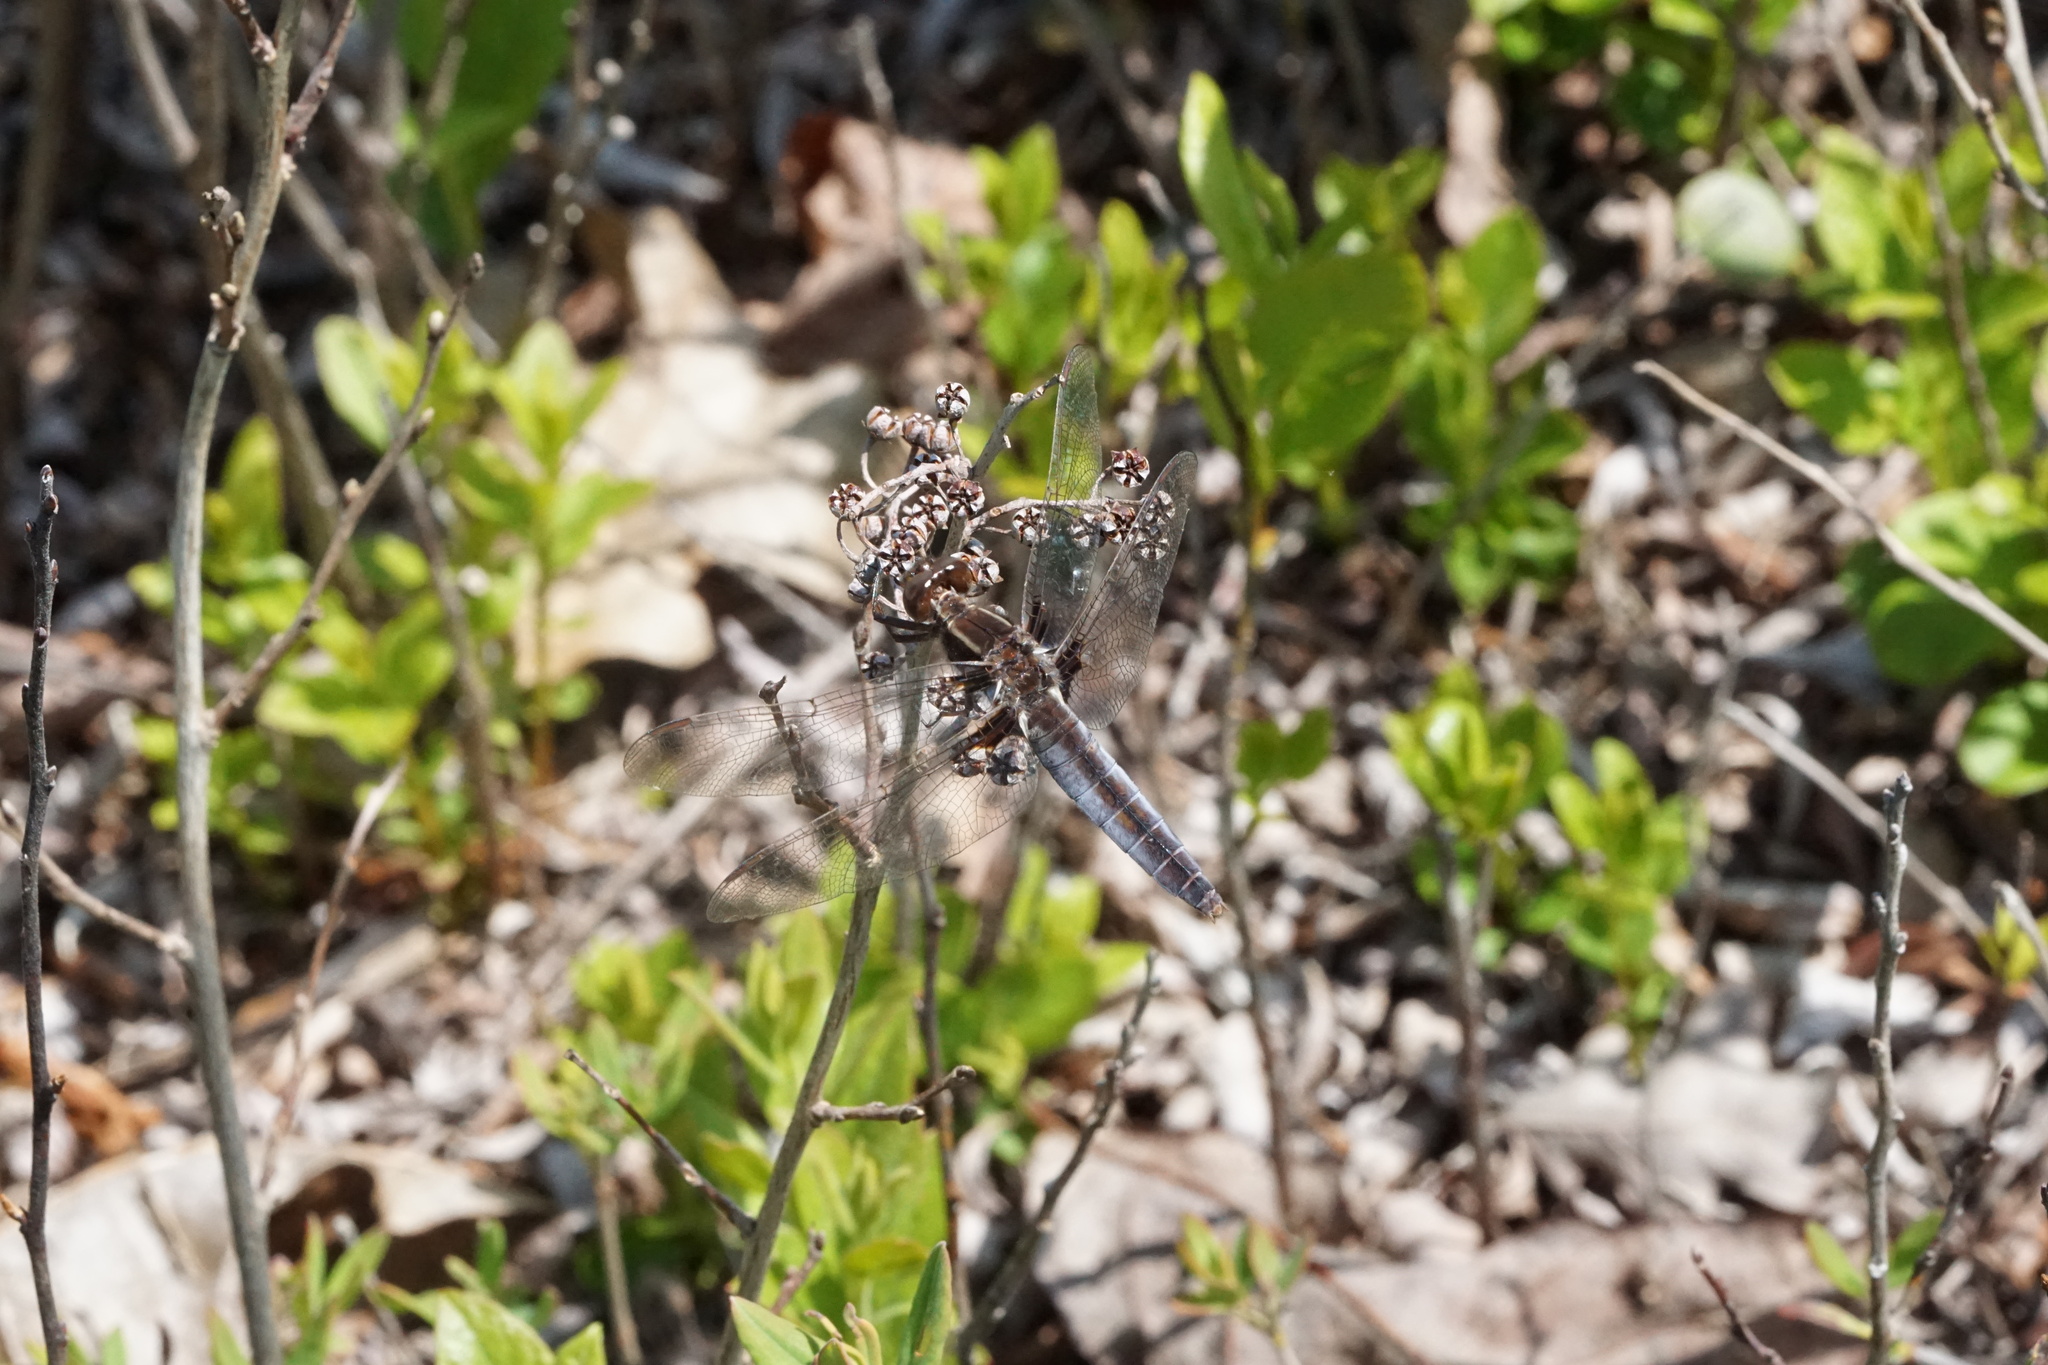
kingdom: Animalia
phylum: Arthropoda
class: Insecta
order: Odonata
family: Libellulidae
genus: Ladona
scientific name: Ladona exusta
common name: Libellule embrasée
